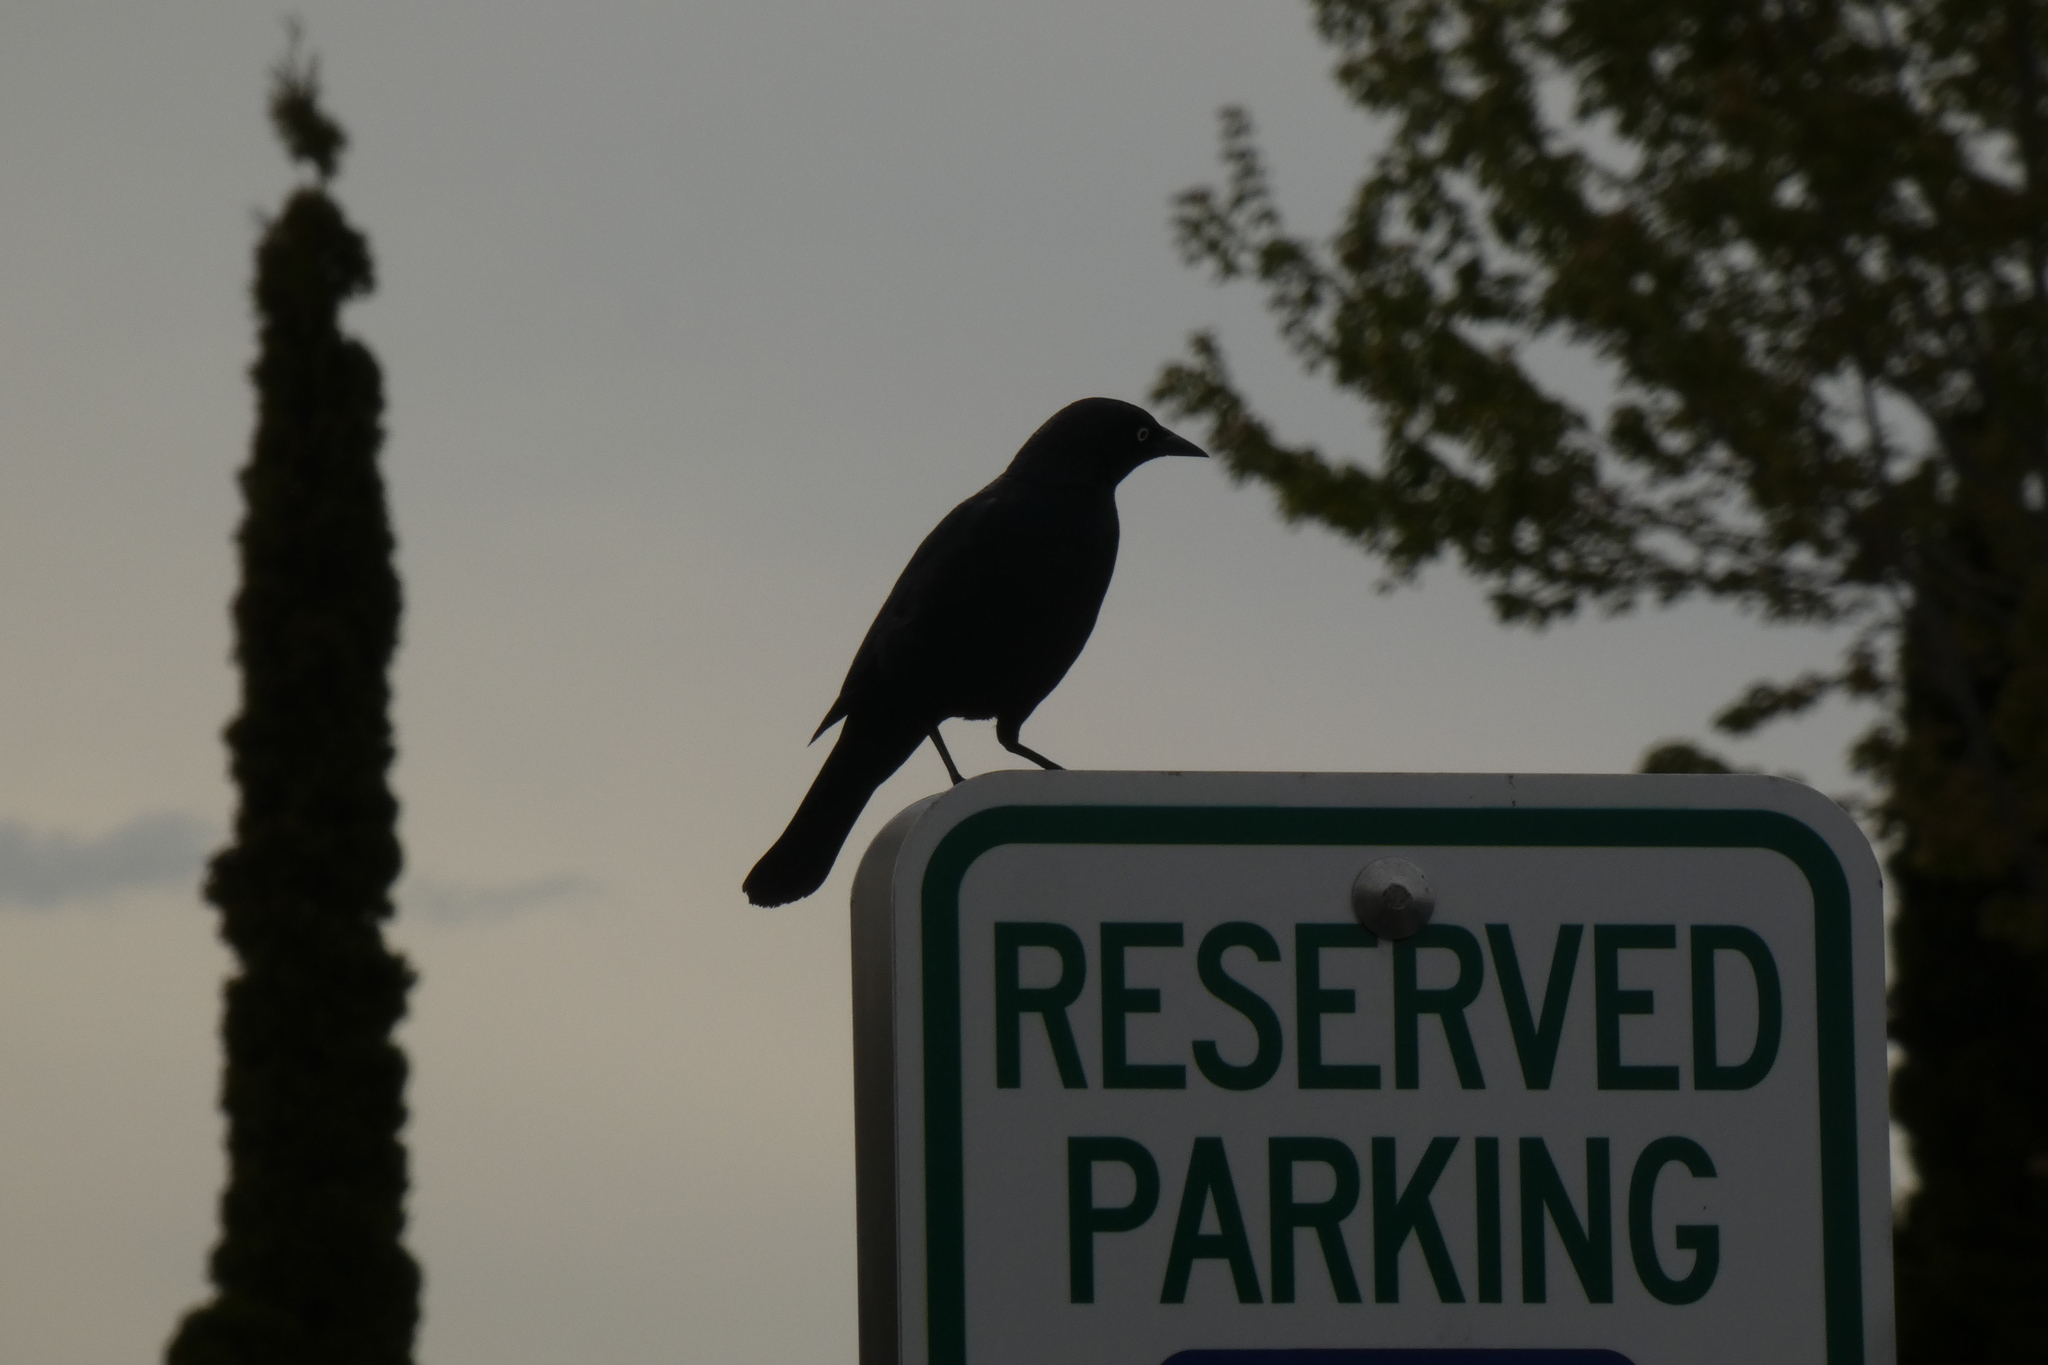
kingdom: Animalia
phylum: Chordata
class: Aves
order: Passeriformes
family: Icteridae
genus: Euphagus
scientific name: Euphagus cyanocephalus
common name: Brewer's blackbird
